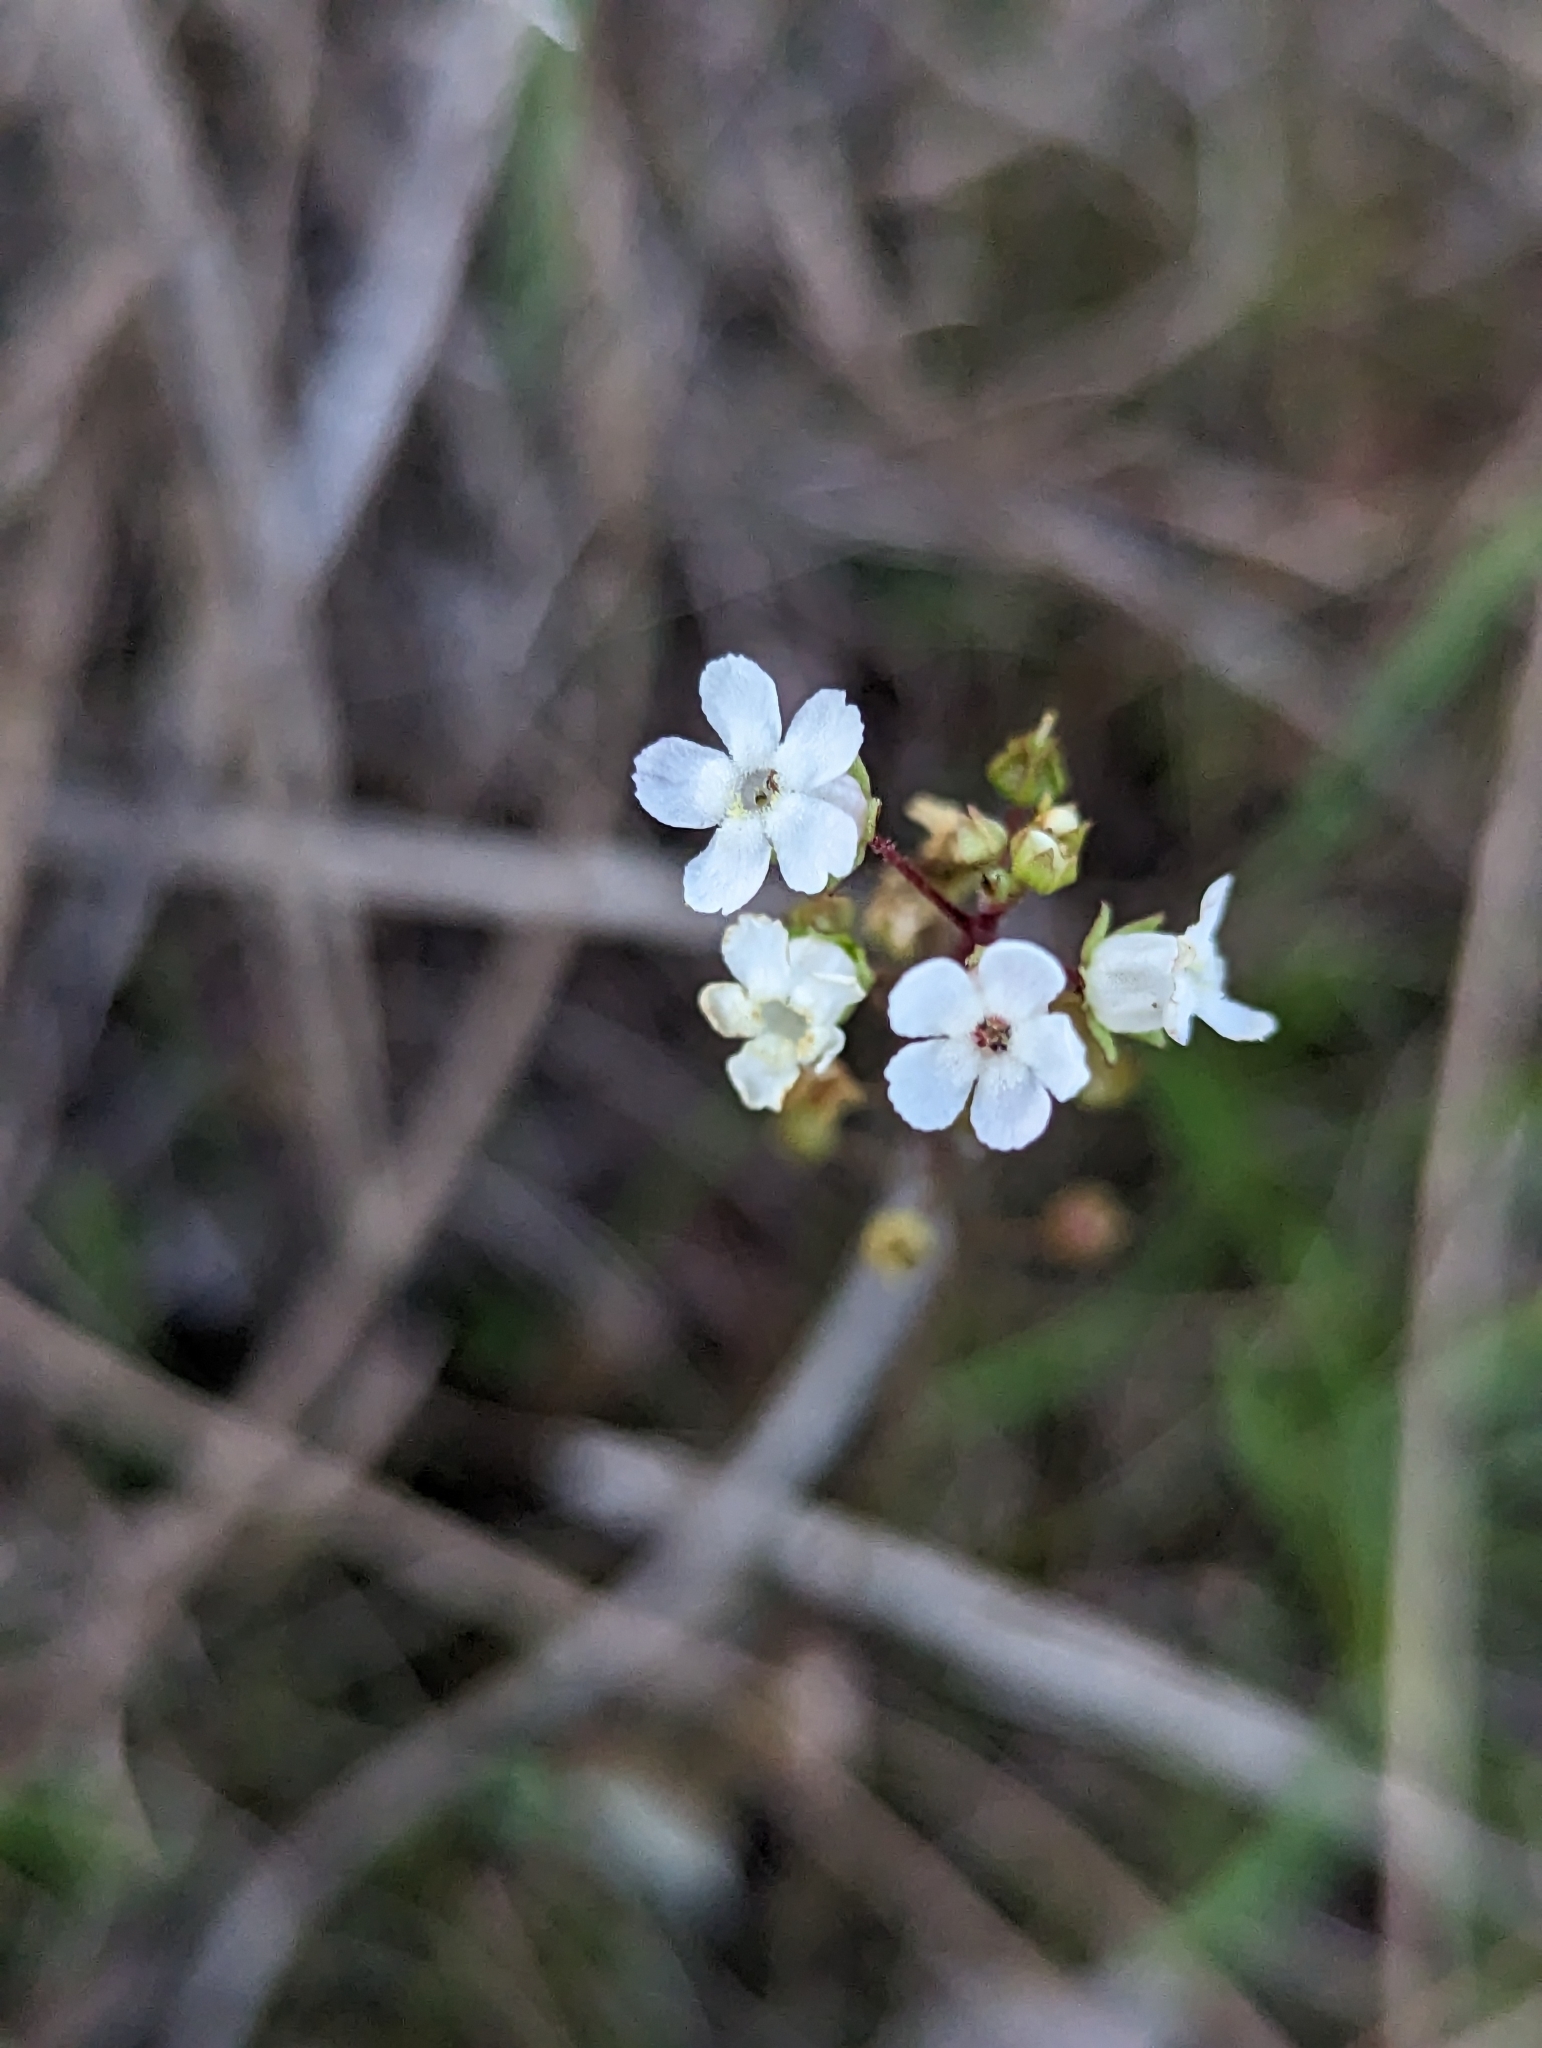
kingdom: Plantae
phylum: Tracheophyta
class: Magnoliopsida
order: Ericales
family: Primulaceae
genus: Samolus
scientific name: Samolus ebracteatus
